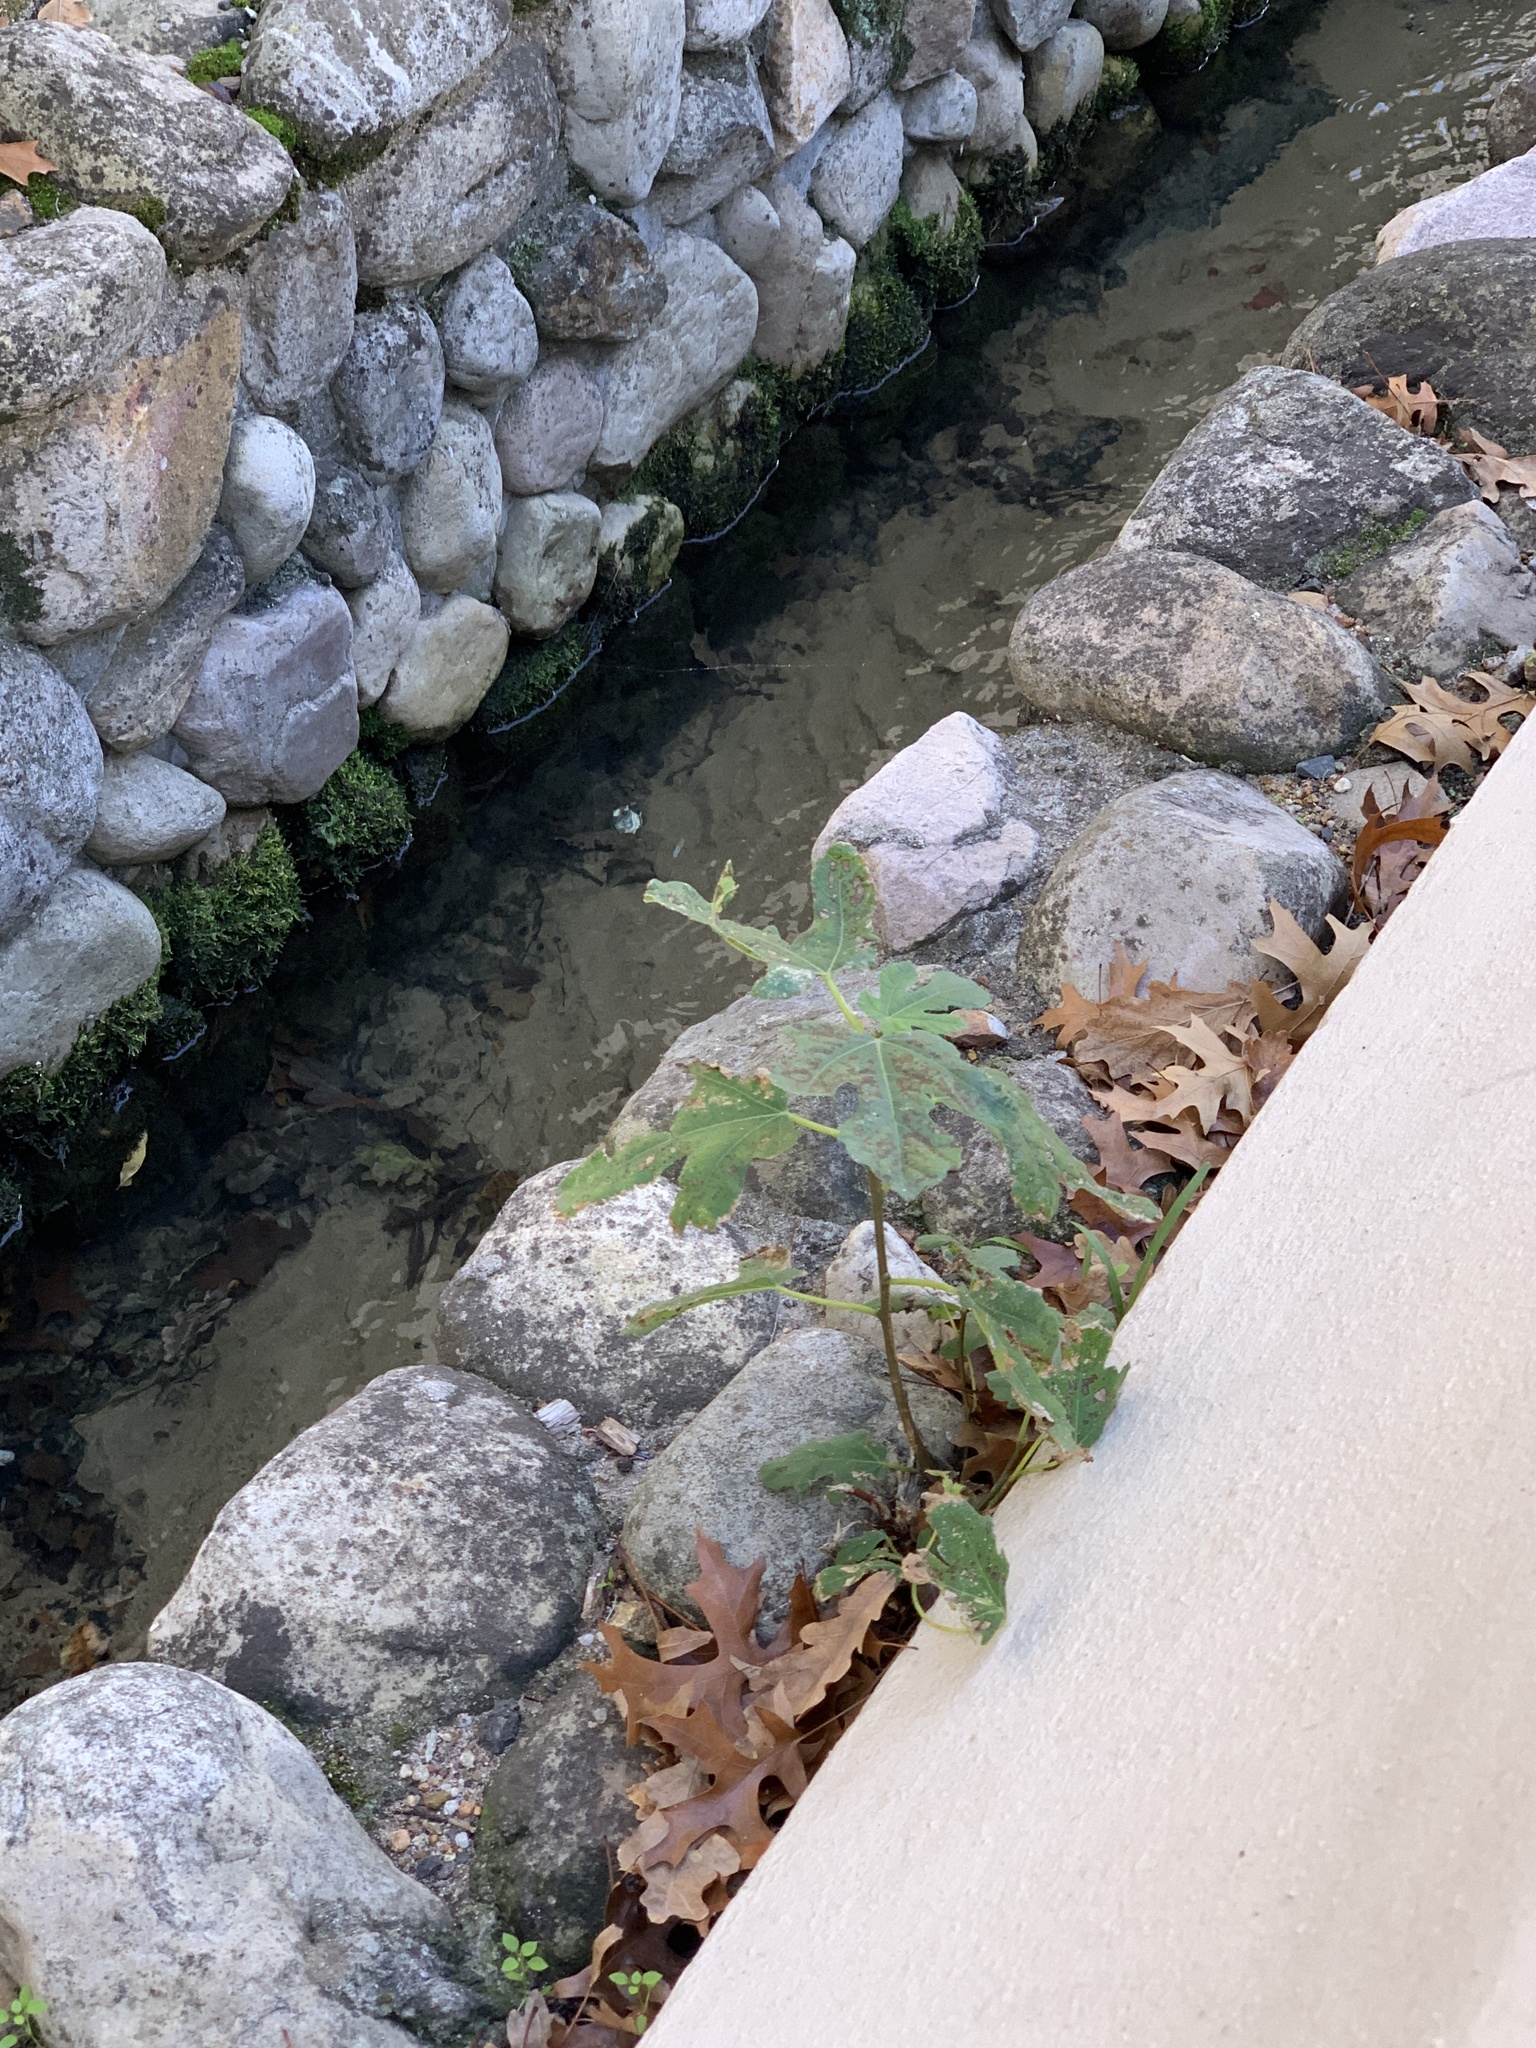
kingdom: Plantae
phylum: Tracheophyta
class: Magnoliopsida
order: Rosales
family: Moraceae
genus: Ficus
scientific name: Ficus carica
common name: Fig
